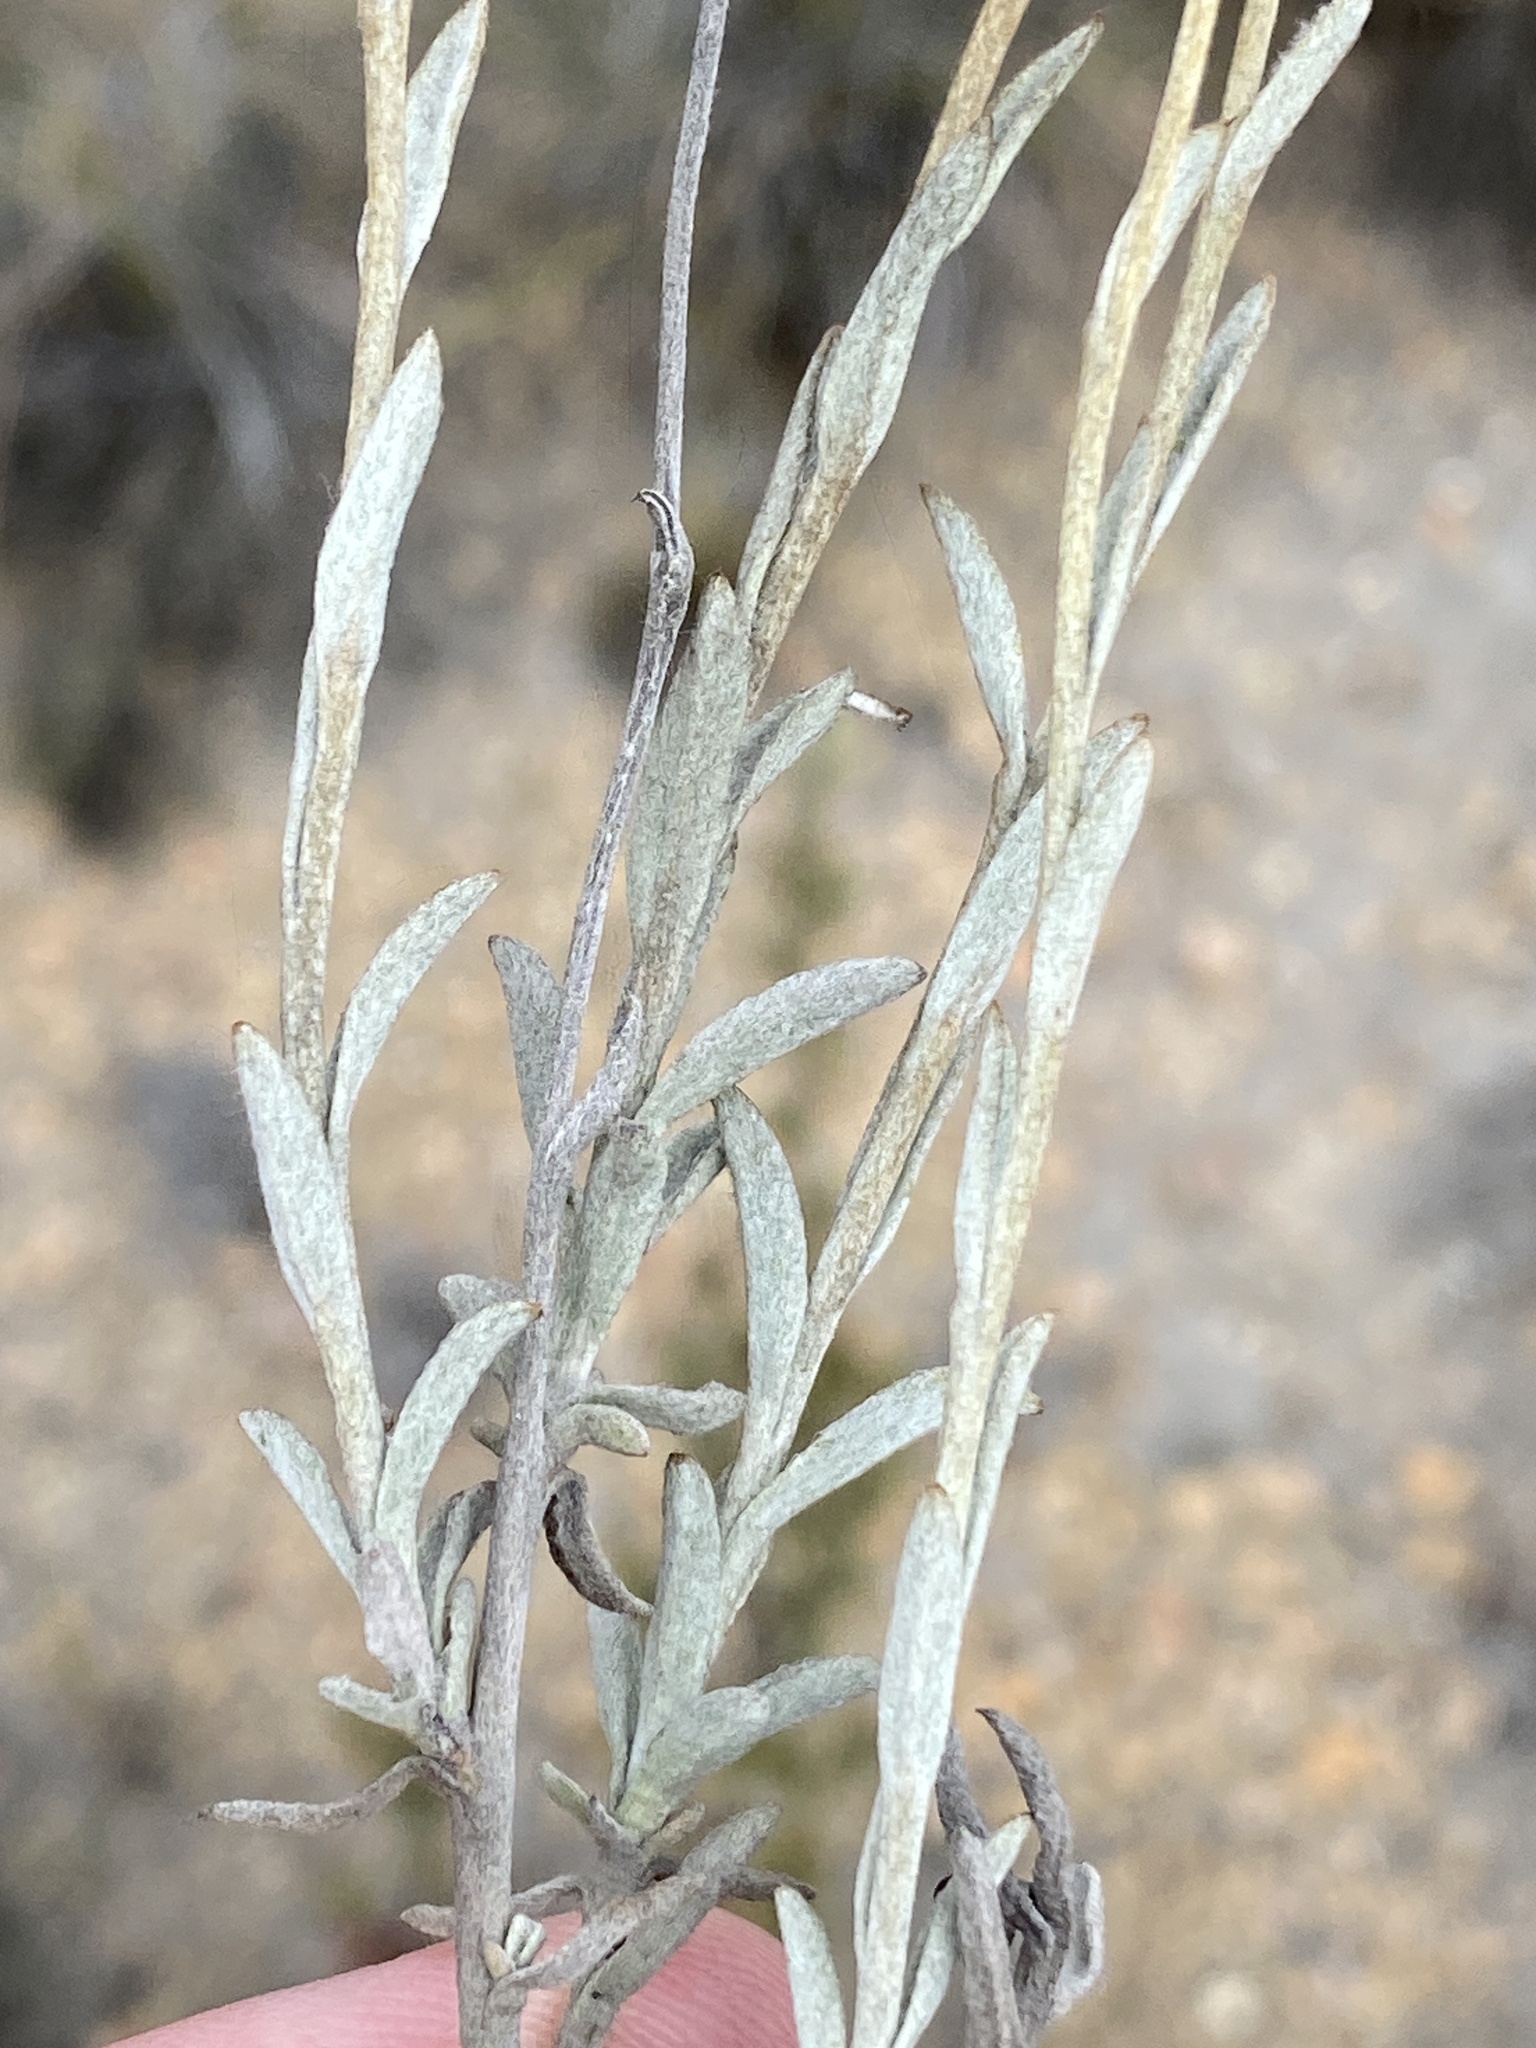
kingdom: Plantae
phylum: Tracheophyta
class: Magnoliopsida
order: Asterales
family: Asteraceae
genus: Syncarpha
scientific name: Syncarpha staehelina
